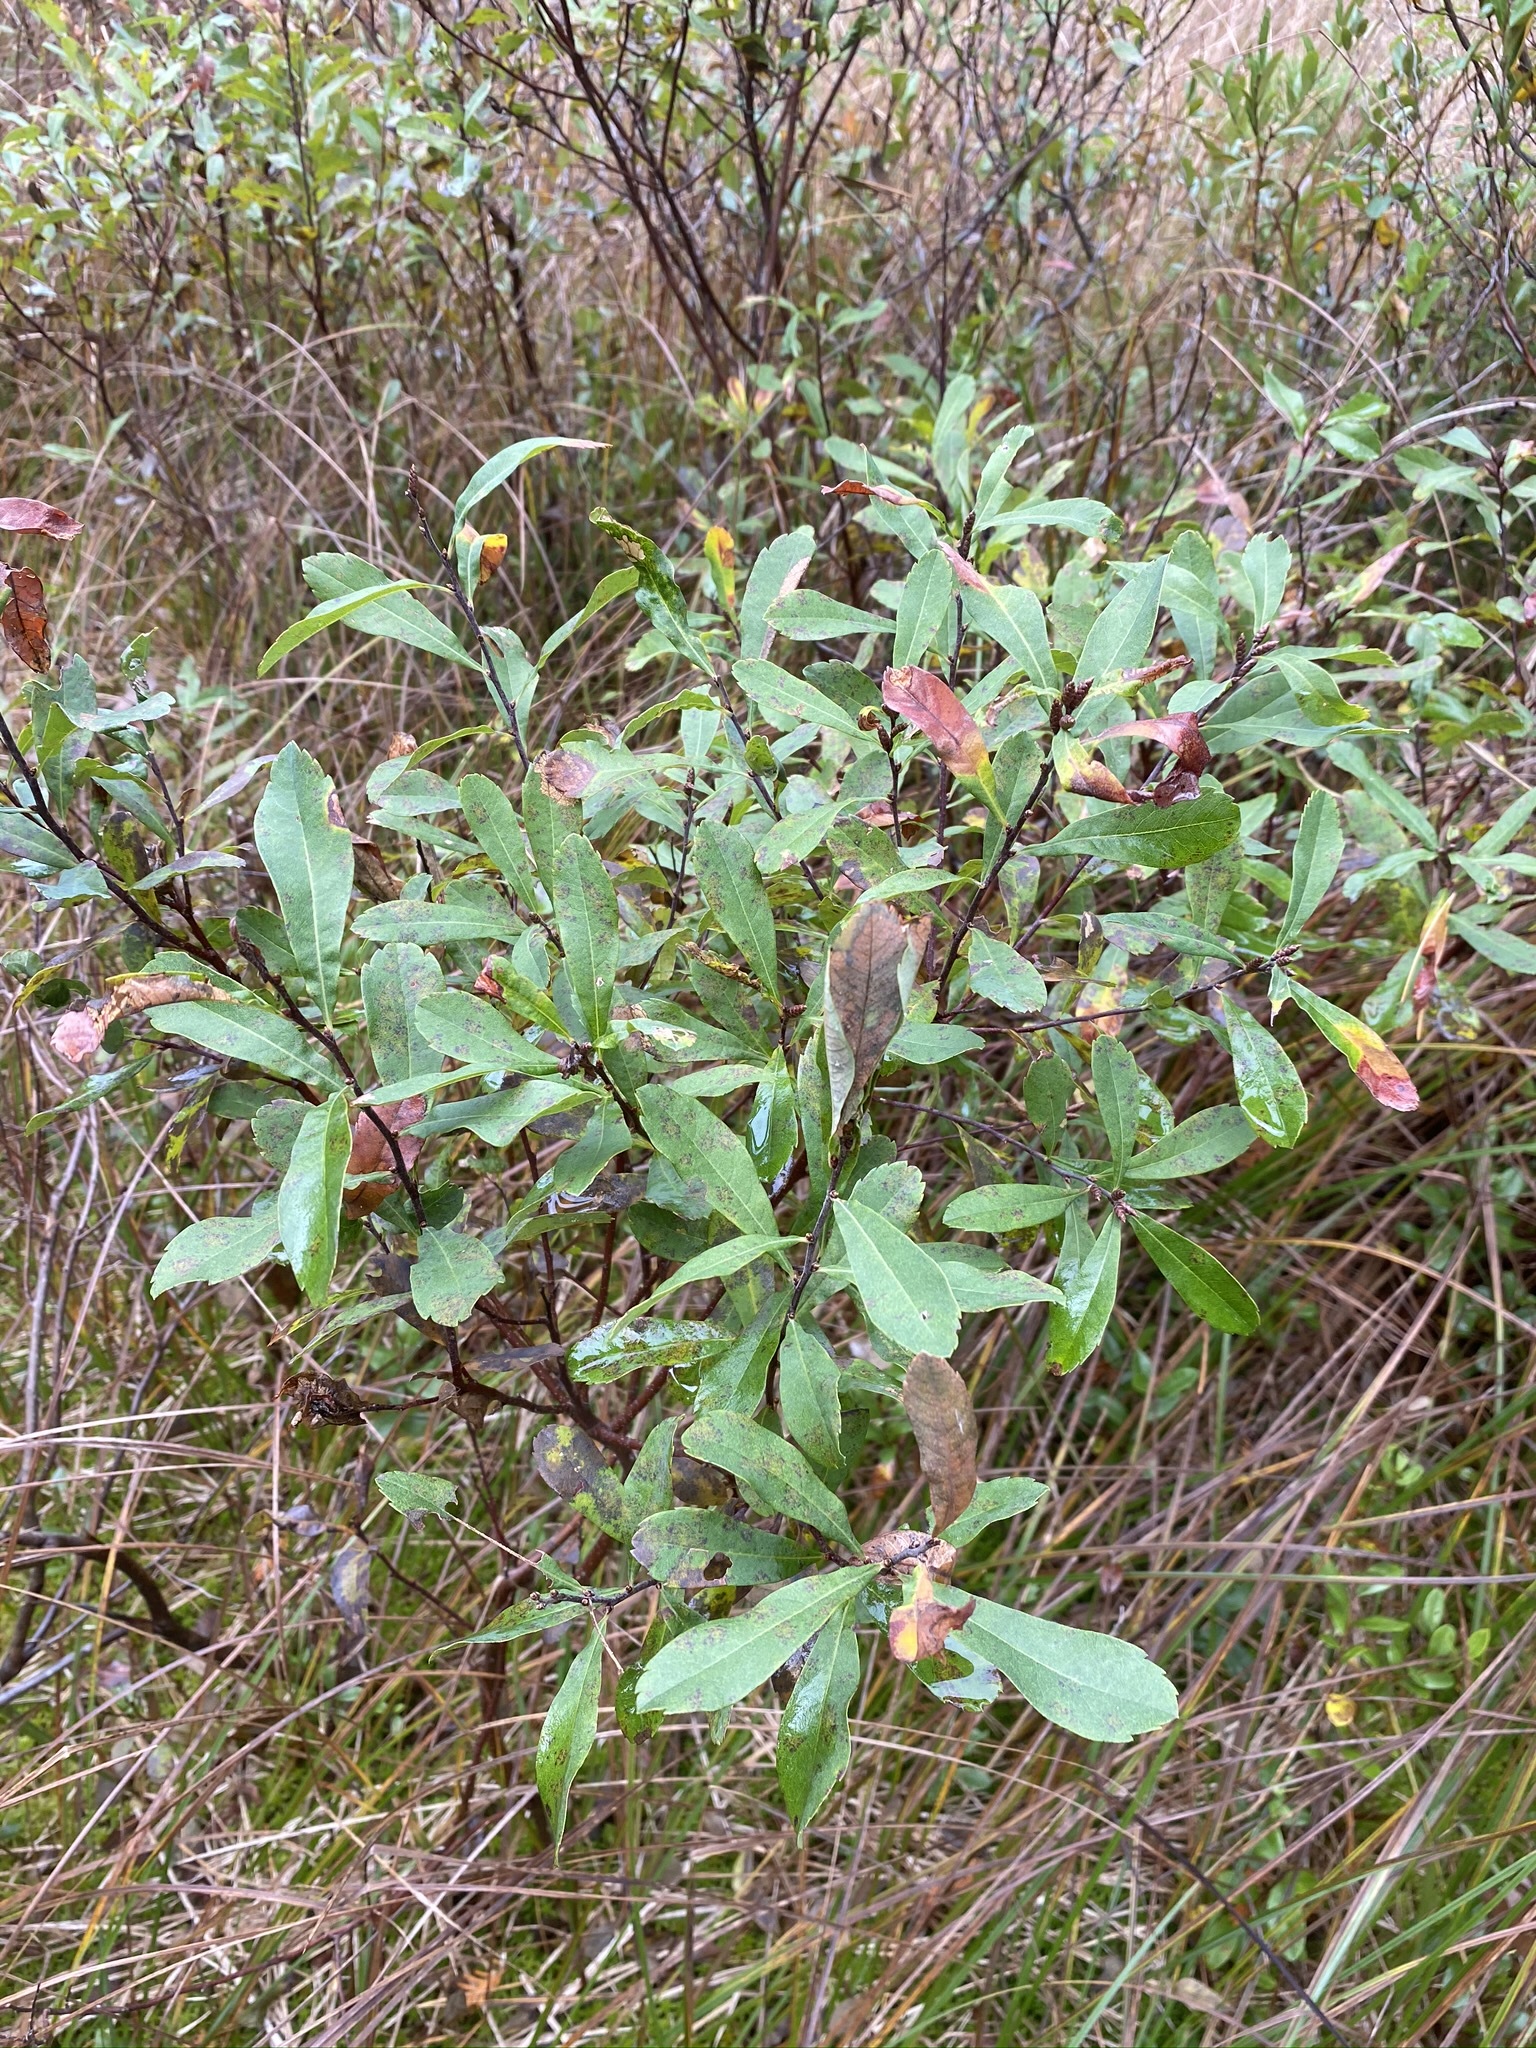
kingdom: Plantae
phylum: Tracheophyta
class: Magnoliopsida
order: Fagales
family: Myricaceae
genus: Myrica
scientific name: Myrica gale
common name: Sweet gale
